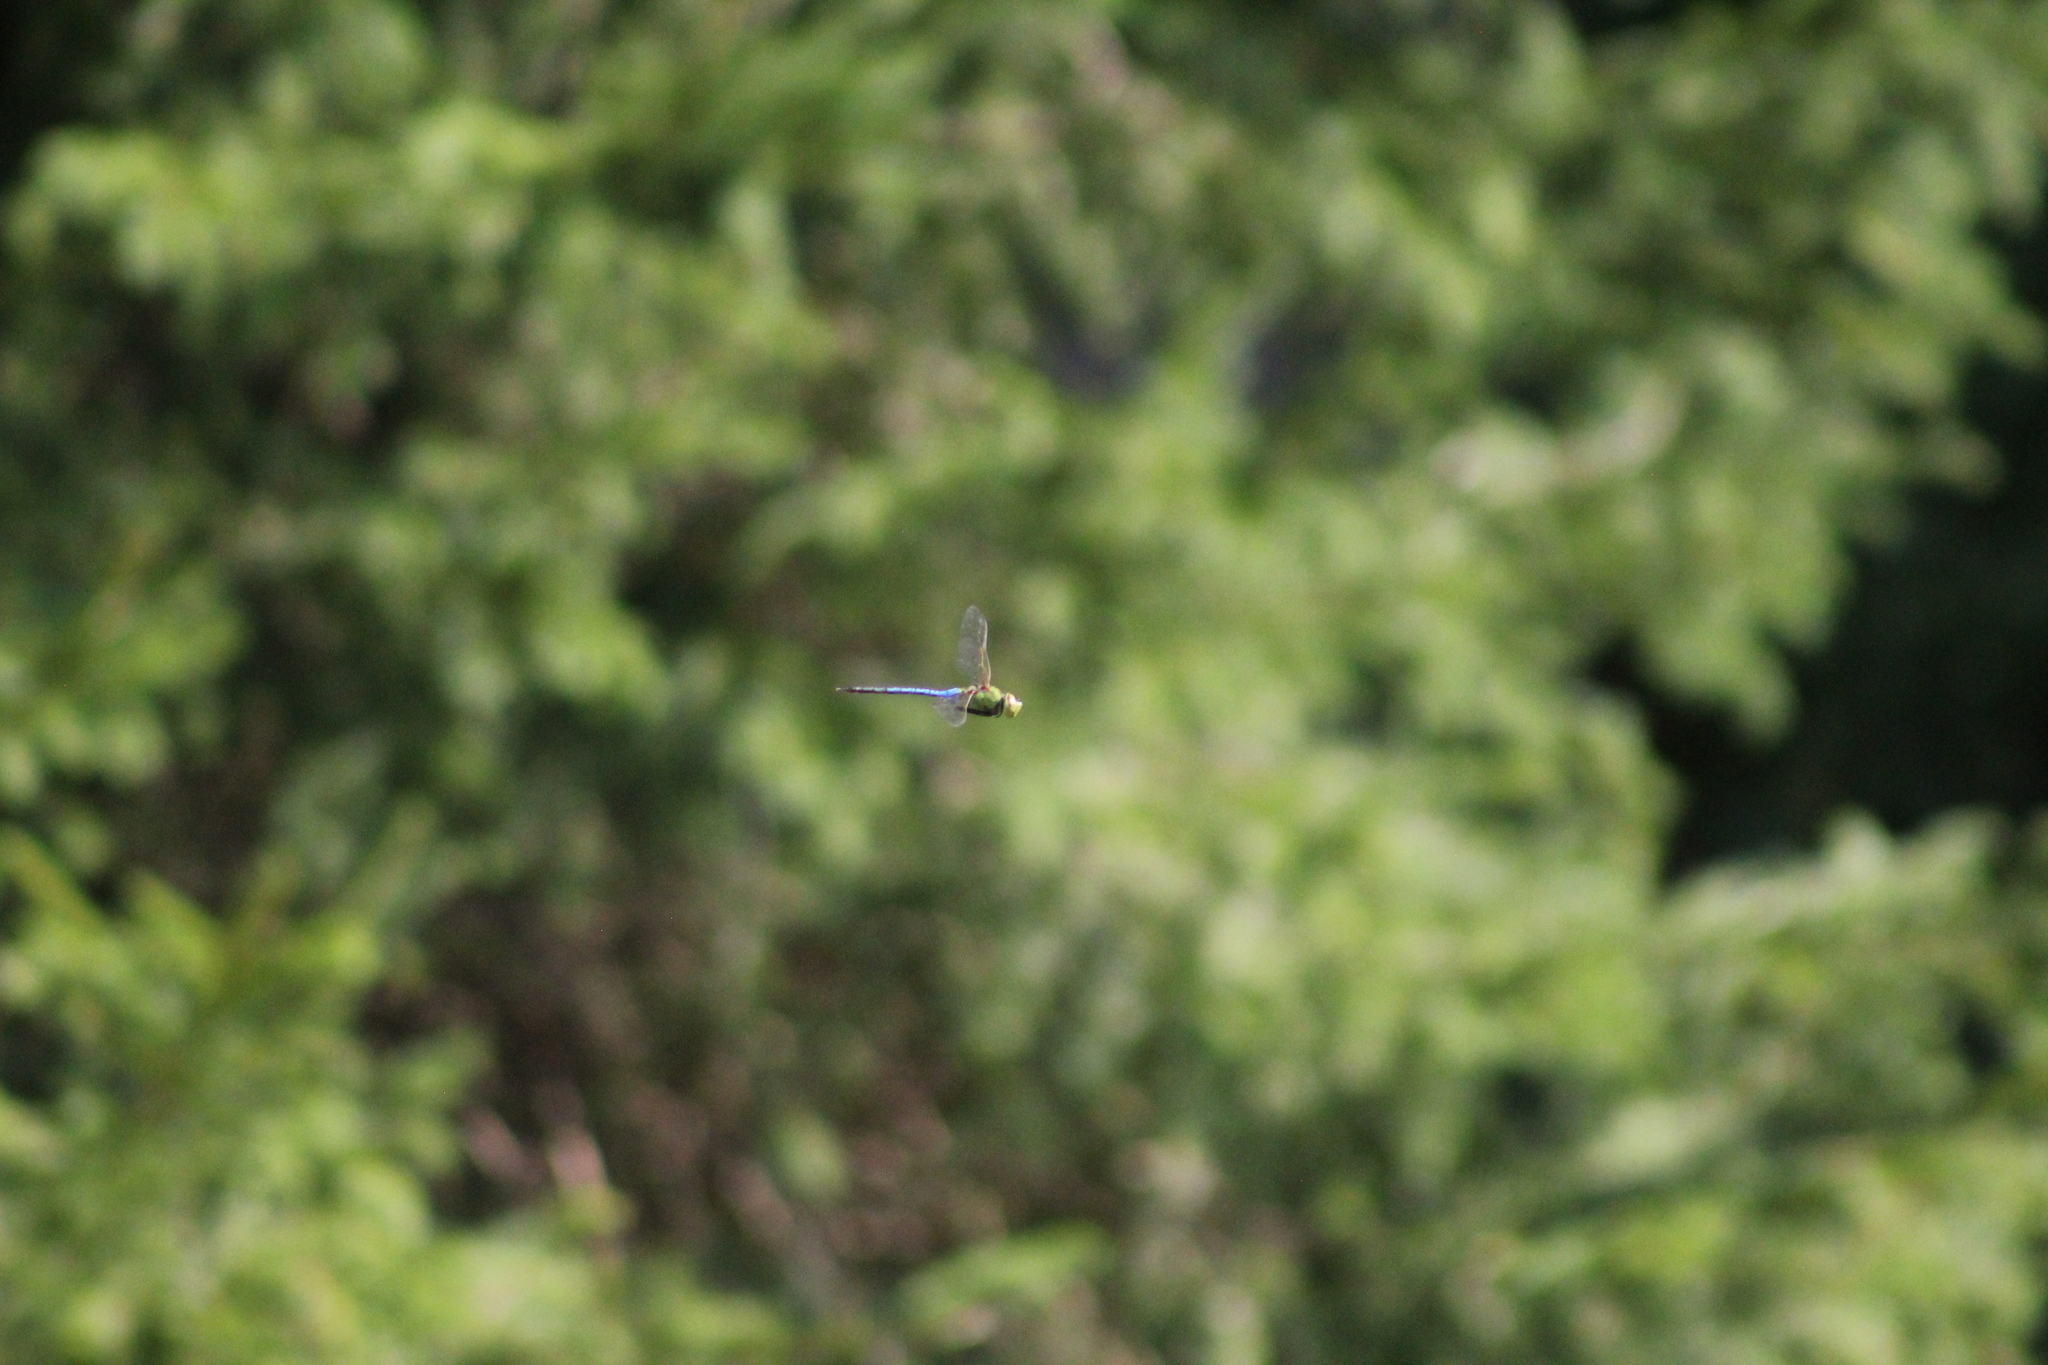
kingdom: Animalia
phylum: Arthropoda
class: Insecta
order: Odonata
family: Aeshnidae
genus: Anax
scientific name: Anax junius
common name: Common green darner
